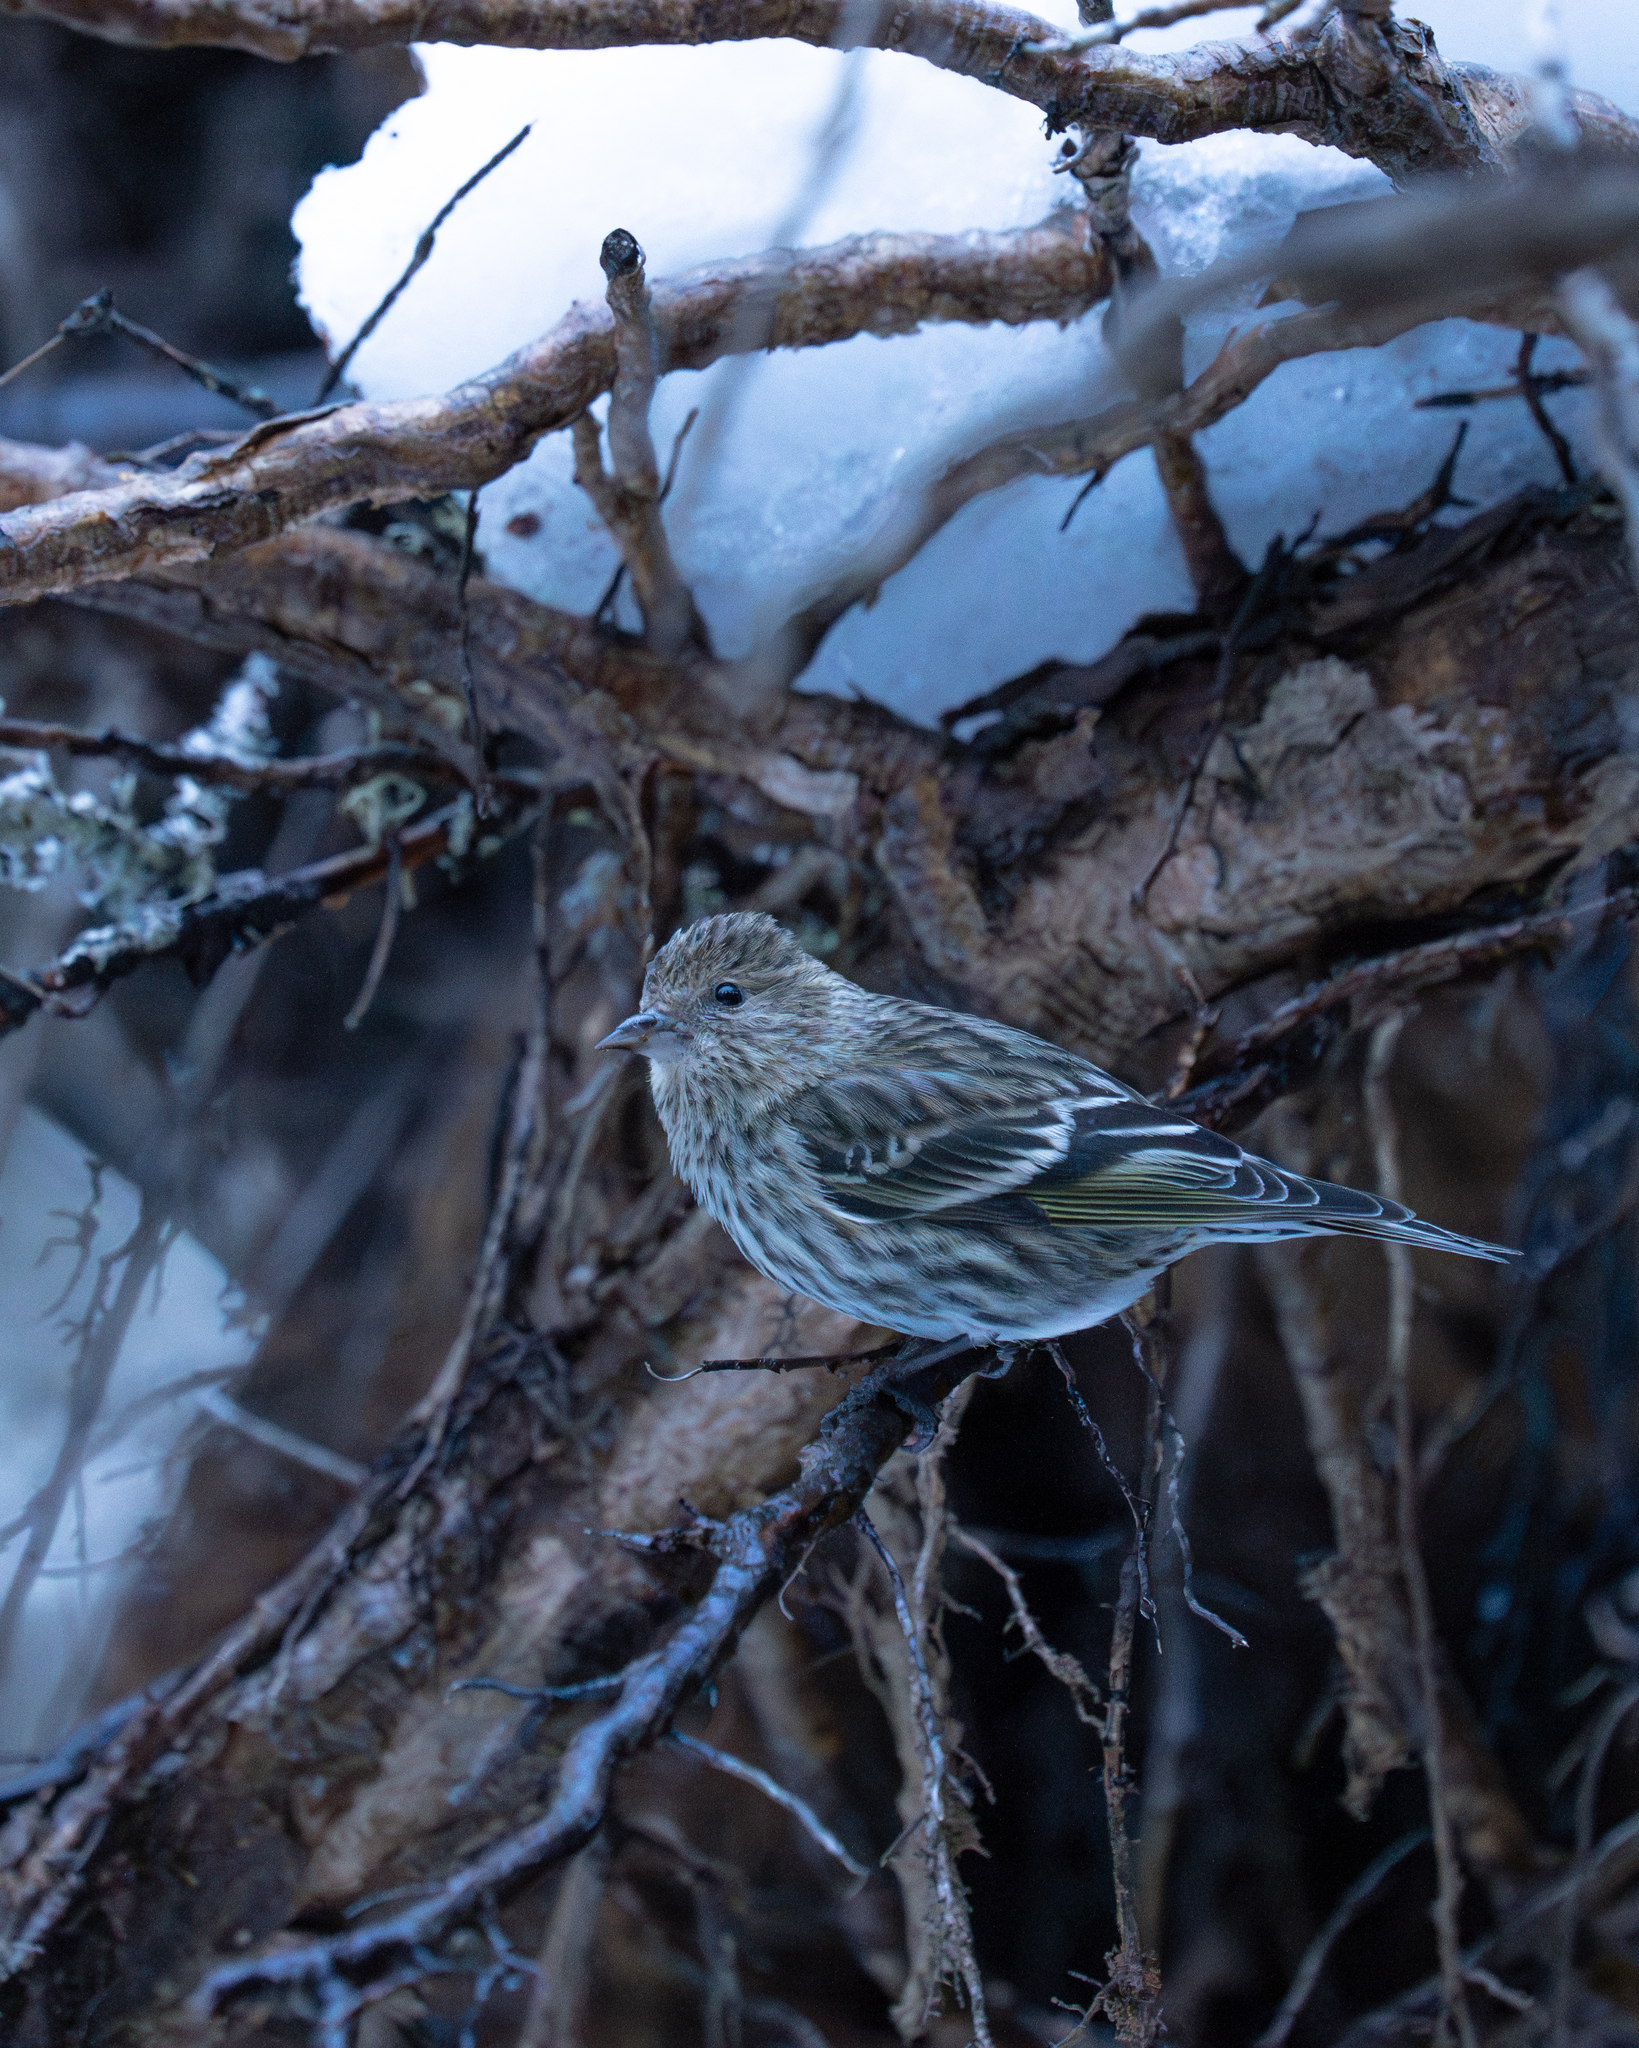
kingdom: Animalia
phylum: Chordata
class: Aves
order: Passeriformes
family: Fringillidae
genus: Spinus
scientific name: Spinus pinus
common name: Pine siskin
